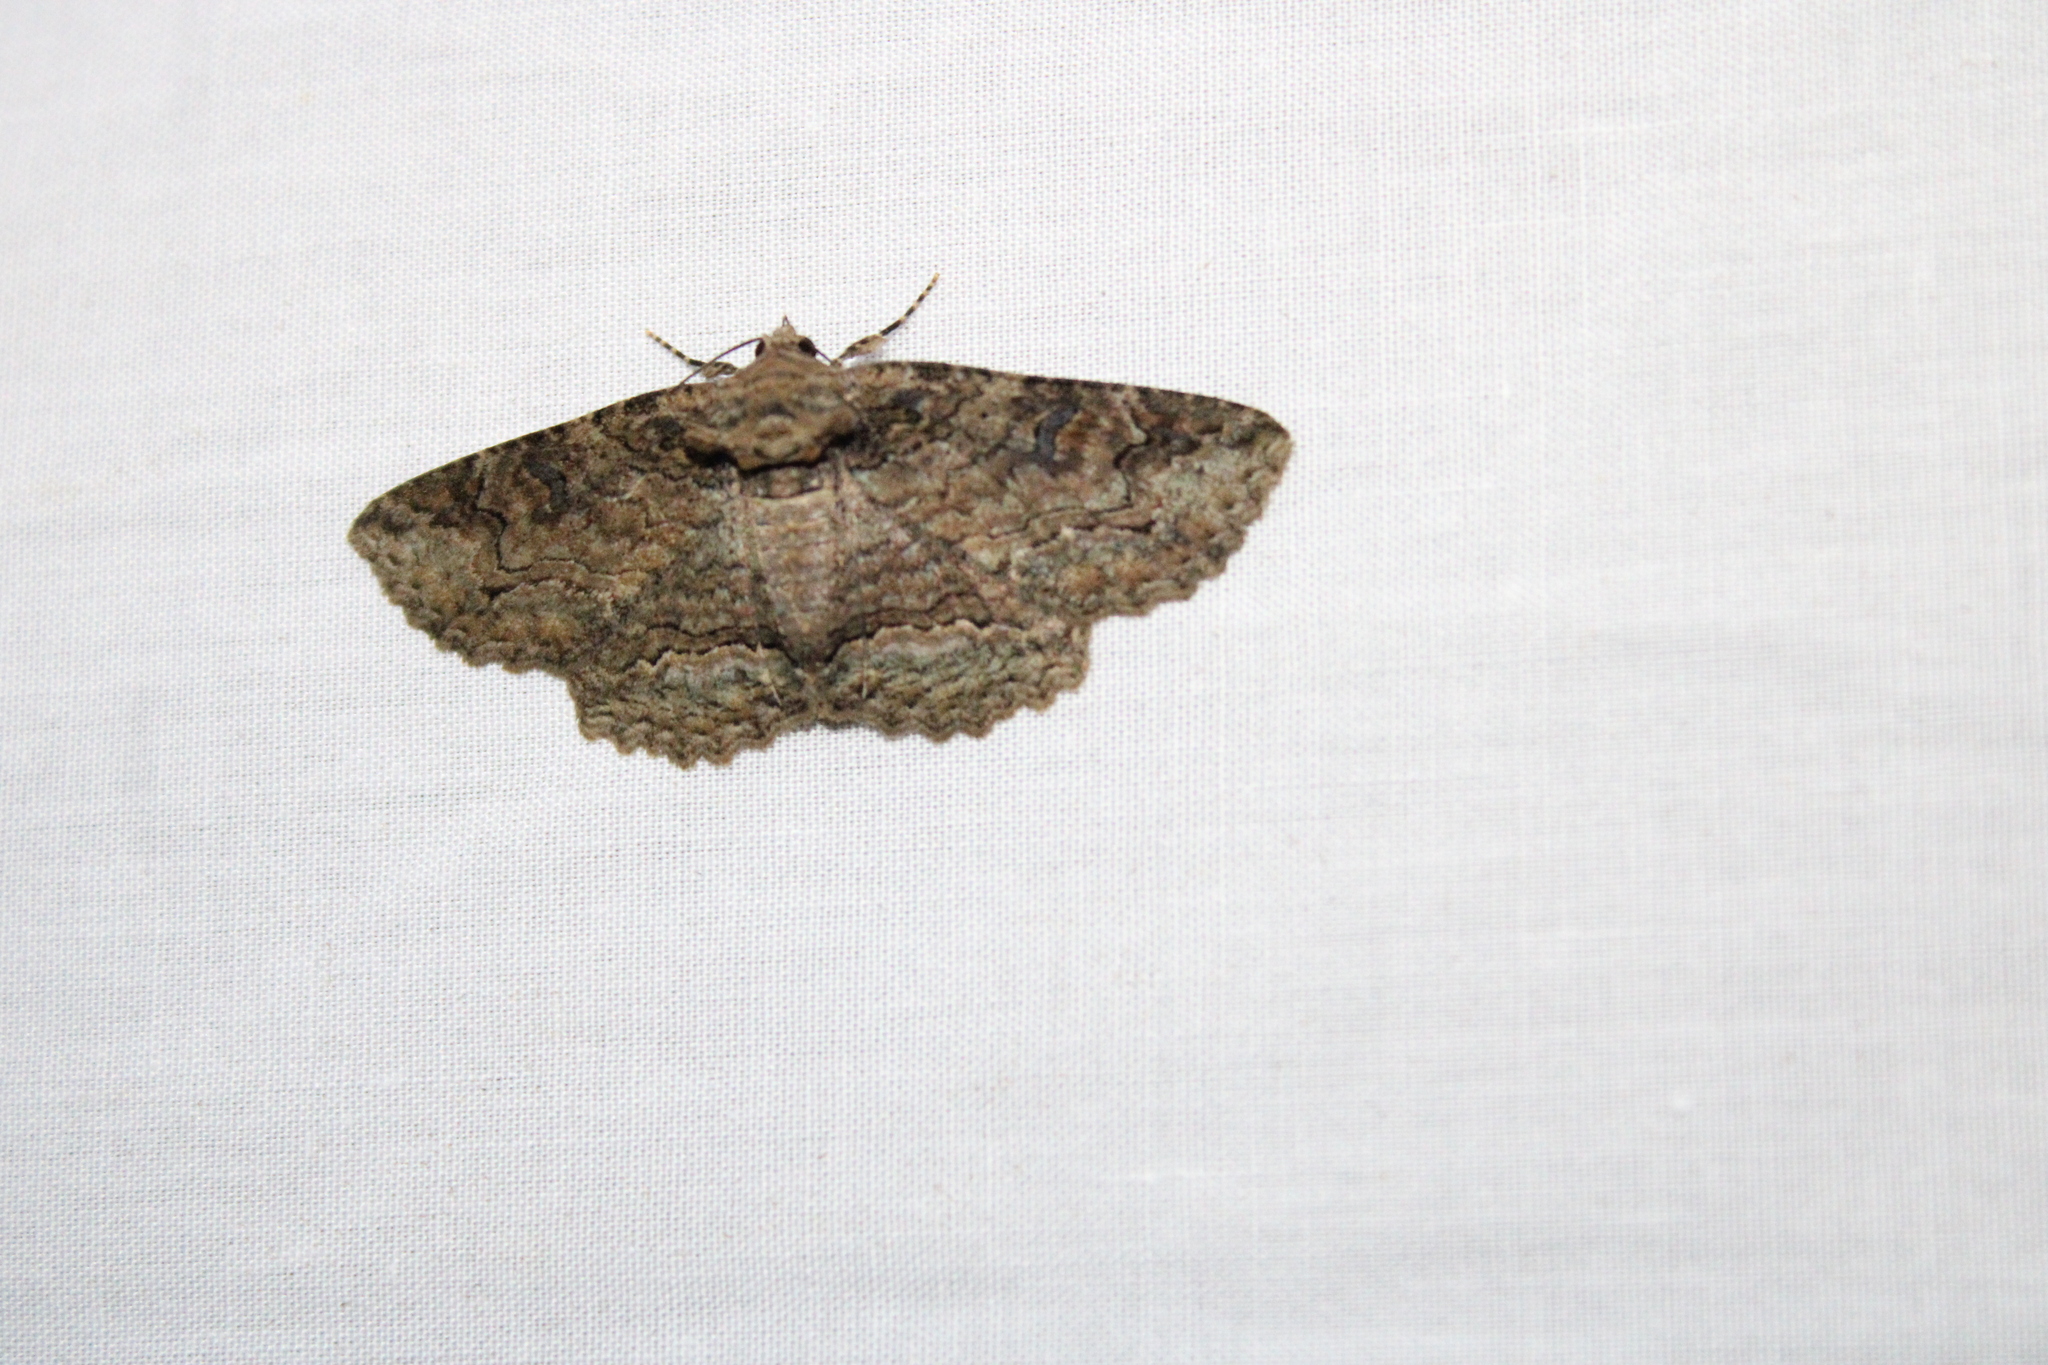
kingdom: Animalia
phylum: Arthropoda
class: Insecta
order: Lepidoptera
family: Erebidae
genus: Zale
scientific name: Zale galbanata
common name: Maple zale
